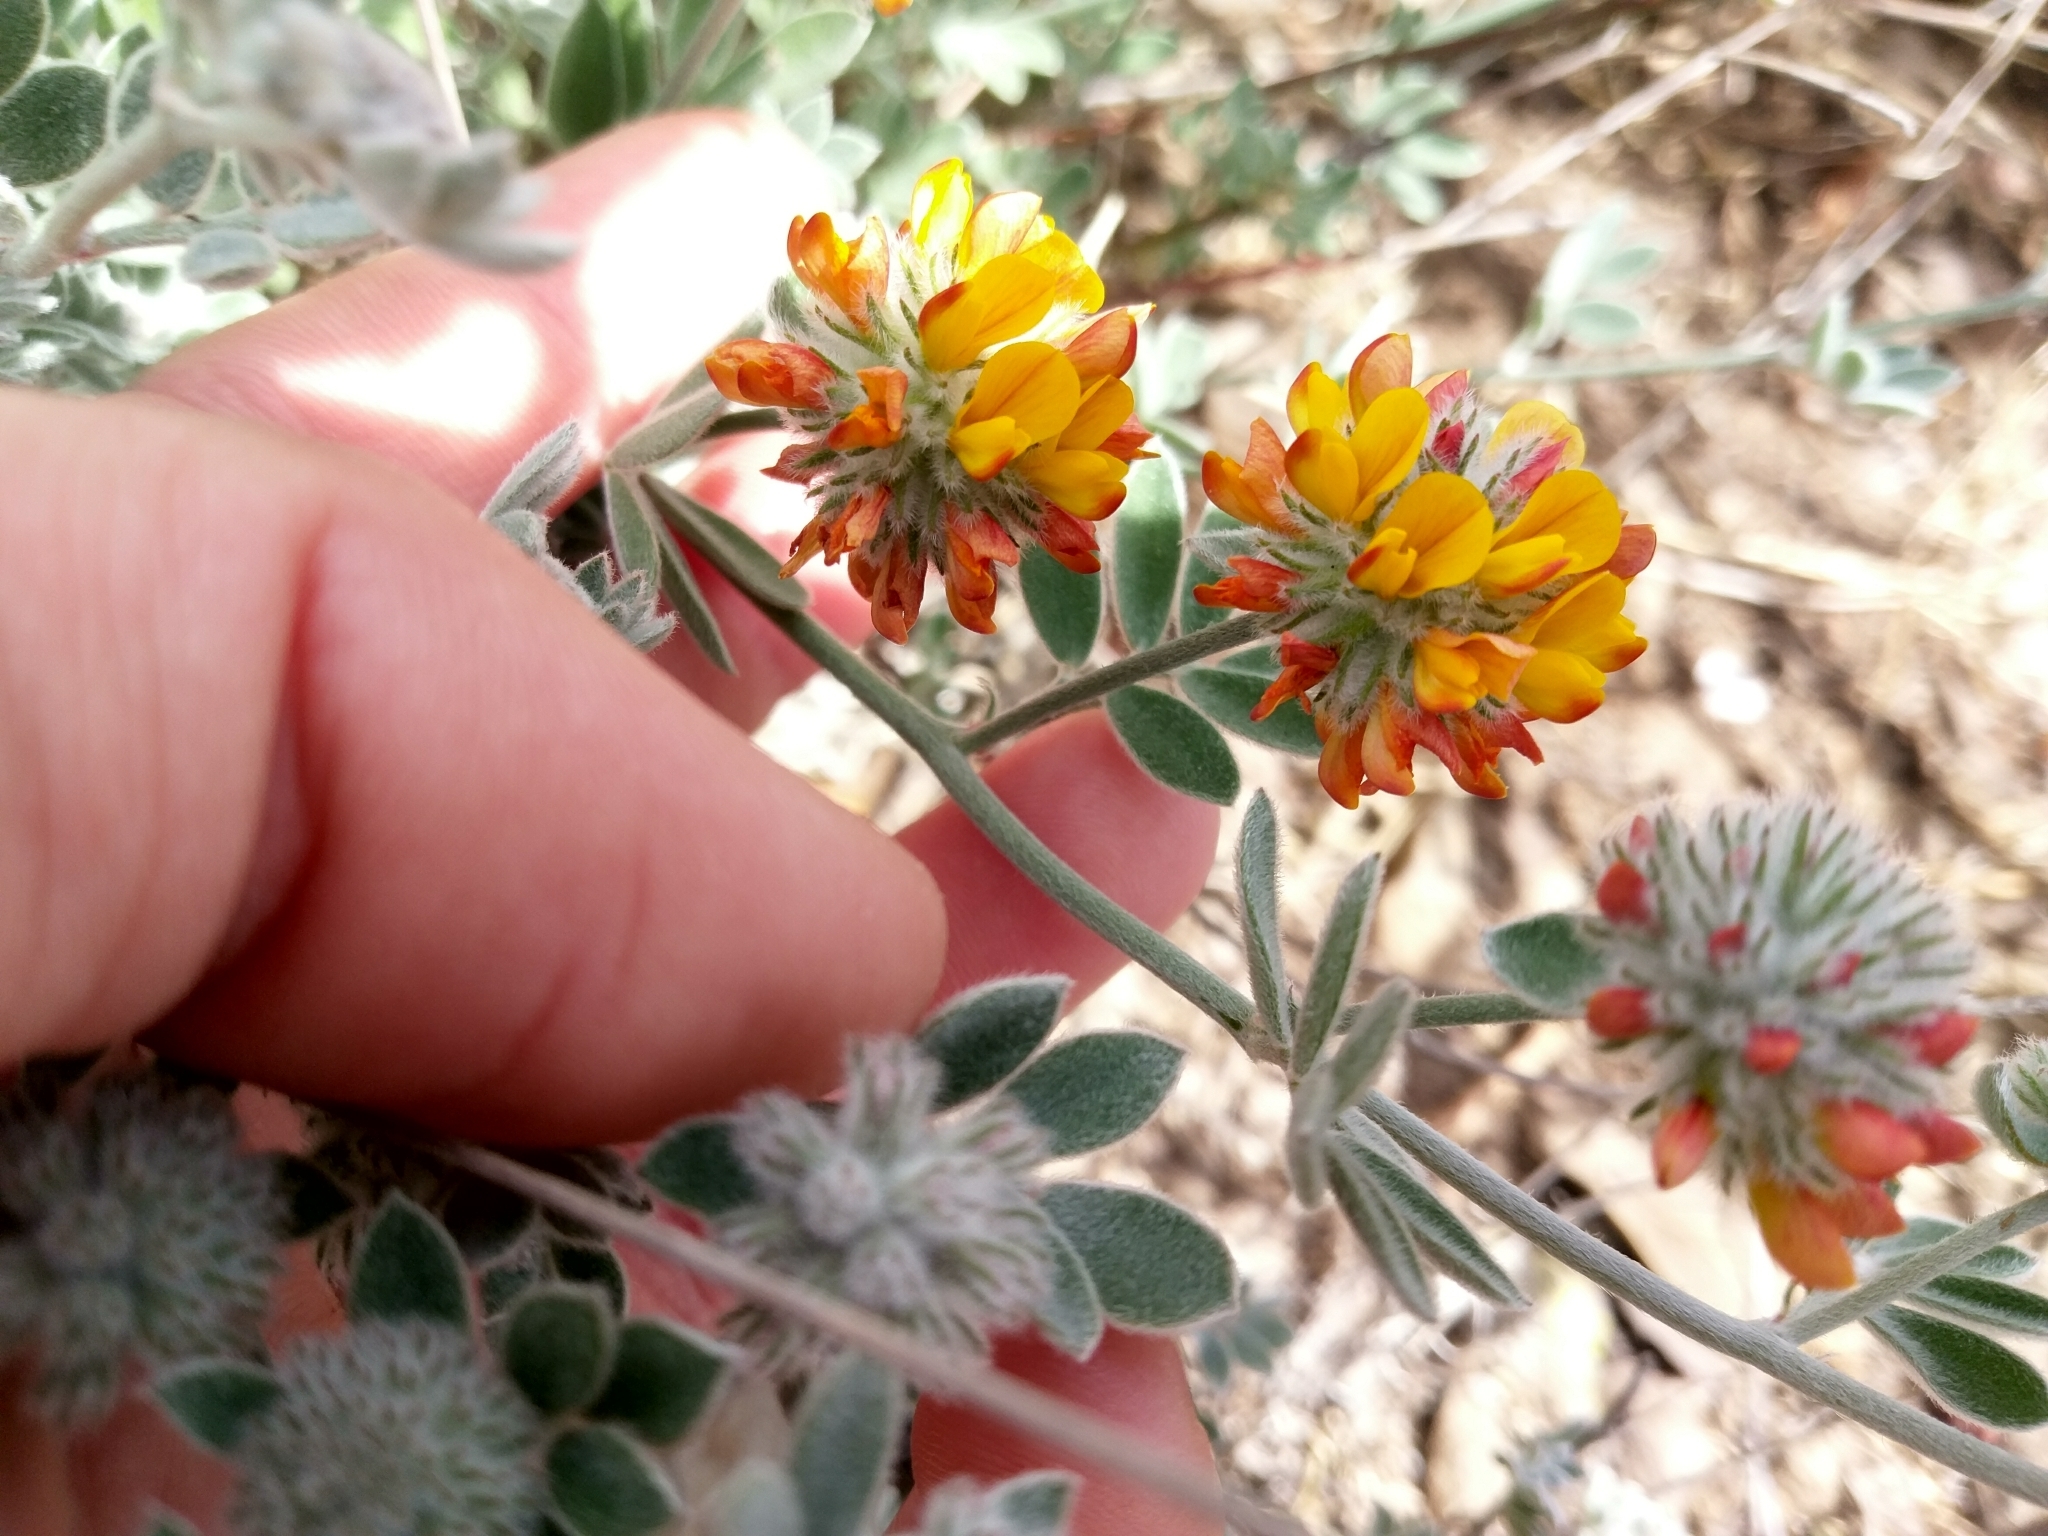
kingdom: Plantae
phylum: Tracheophyta
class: Magnoliopsida
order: Fabales
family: Fabaceae
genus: Acmispon
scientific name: Acmispon argophyllus
